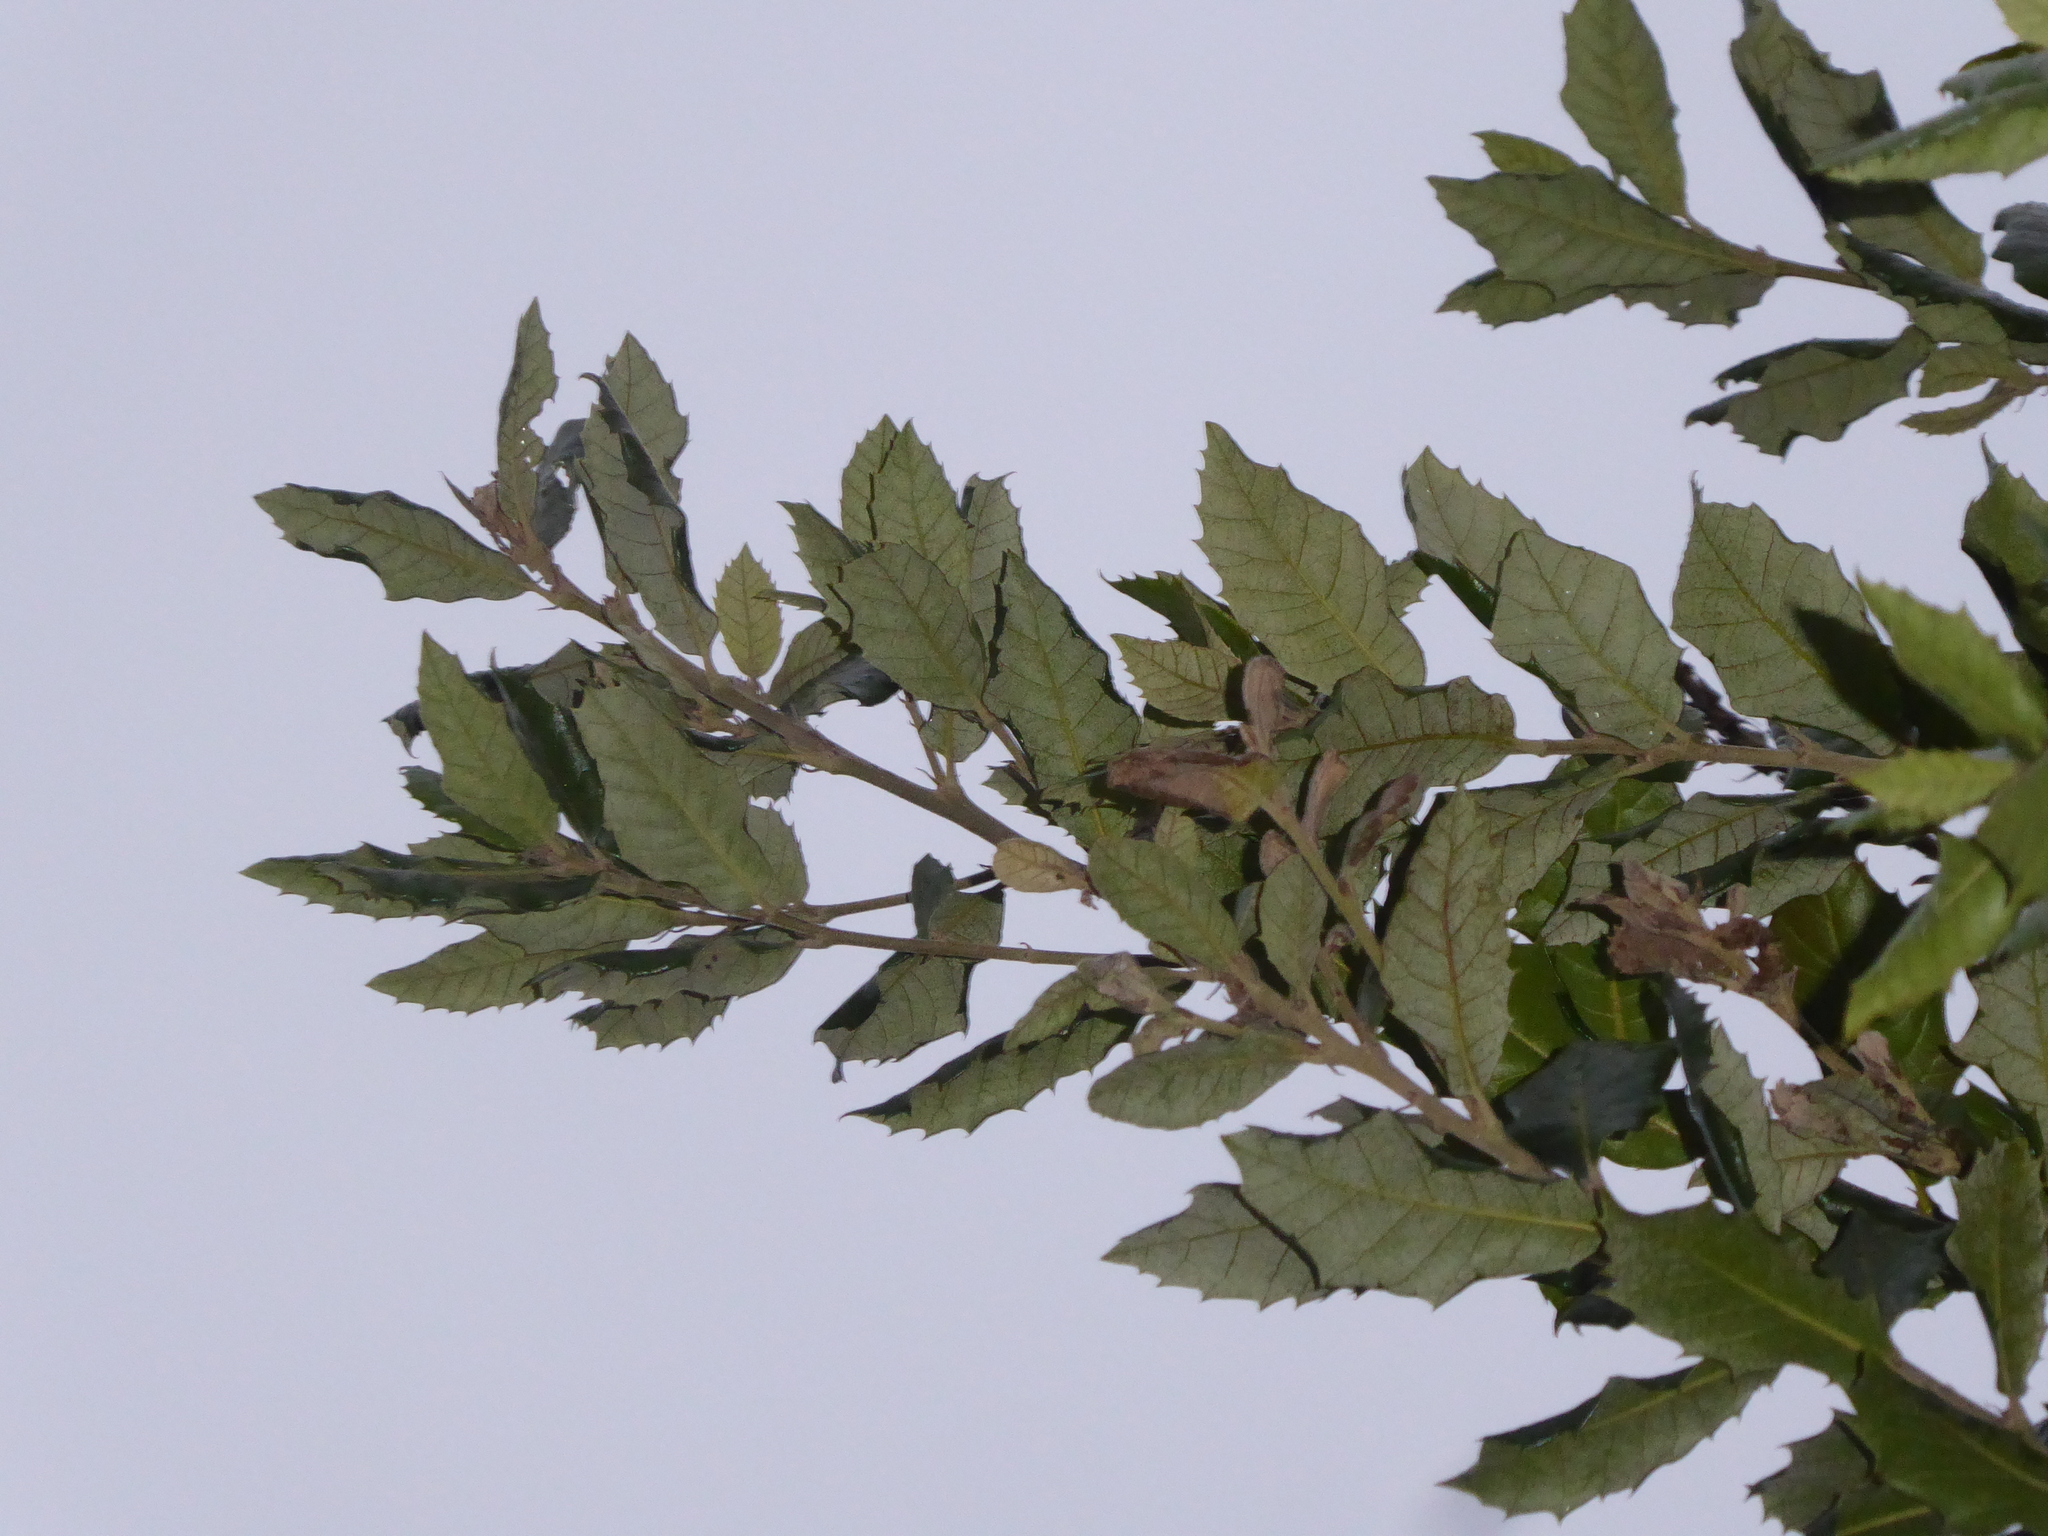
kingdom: Plantae
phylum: Tracheophyta
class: Magnoliopsida
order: Fagales
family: Fagaceae
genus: Quercus
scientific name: Quercus ilex
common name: Evergreen oak
